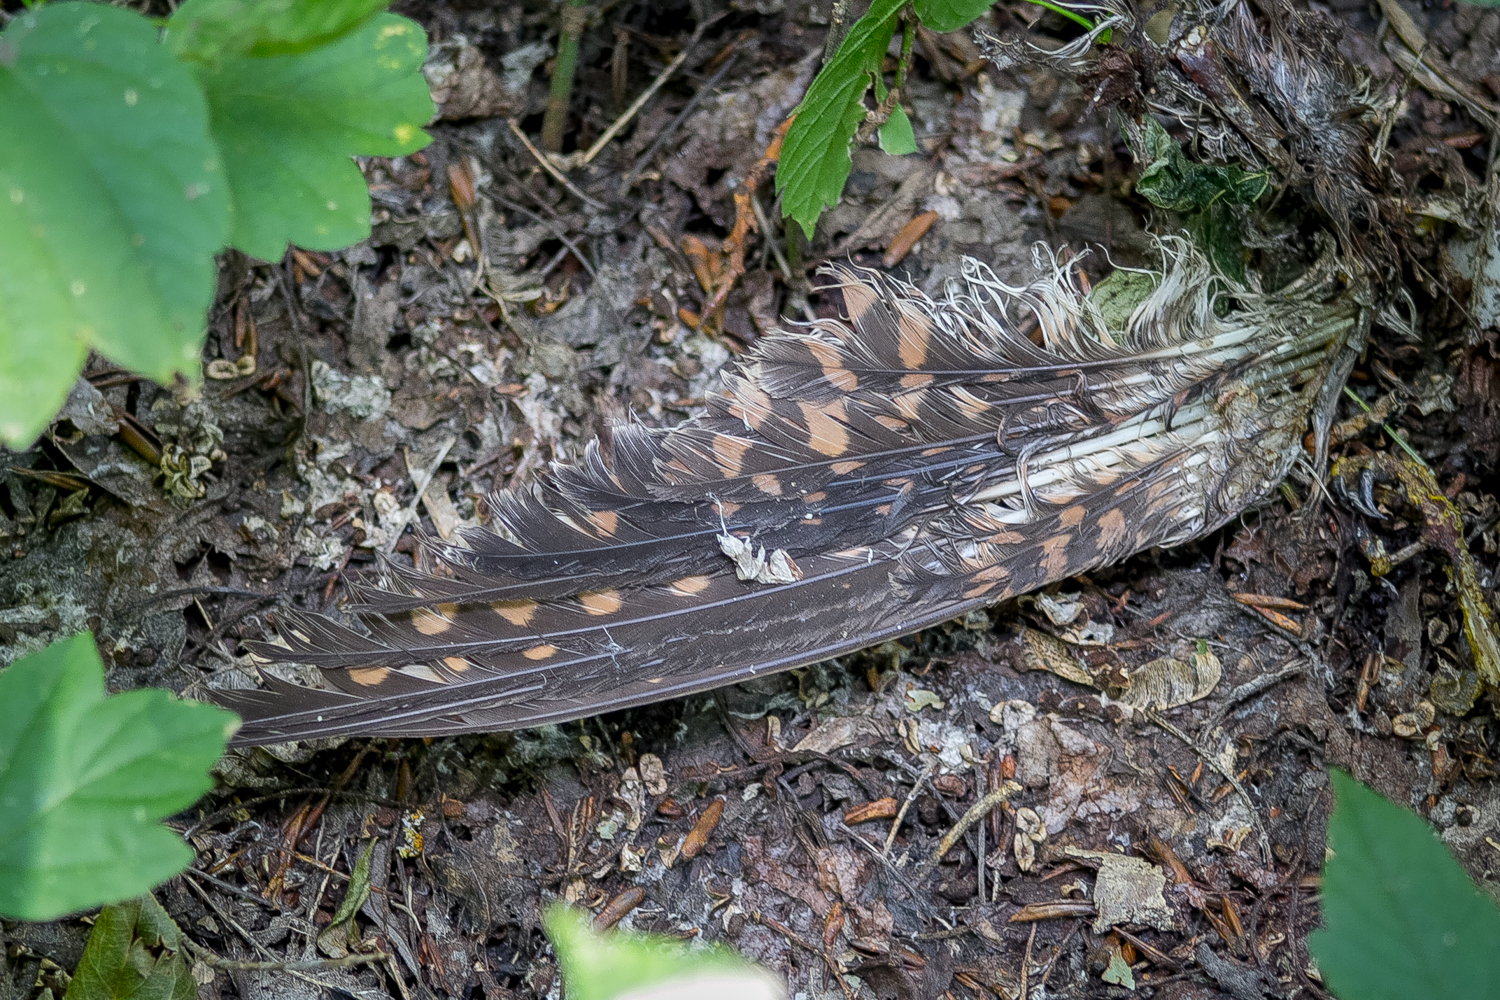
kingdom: Animalia
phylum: Chordata
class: Aves
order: Falconiformes
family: Falconidae
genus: Falco
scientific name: Falco tinnunculus
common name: Common kestrel
